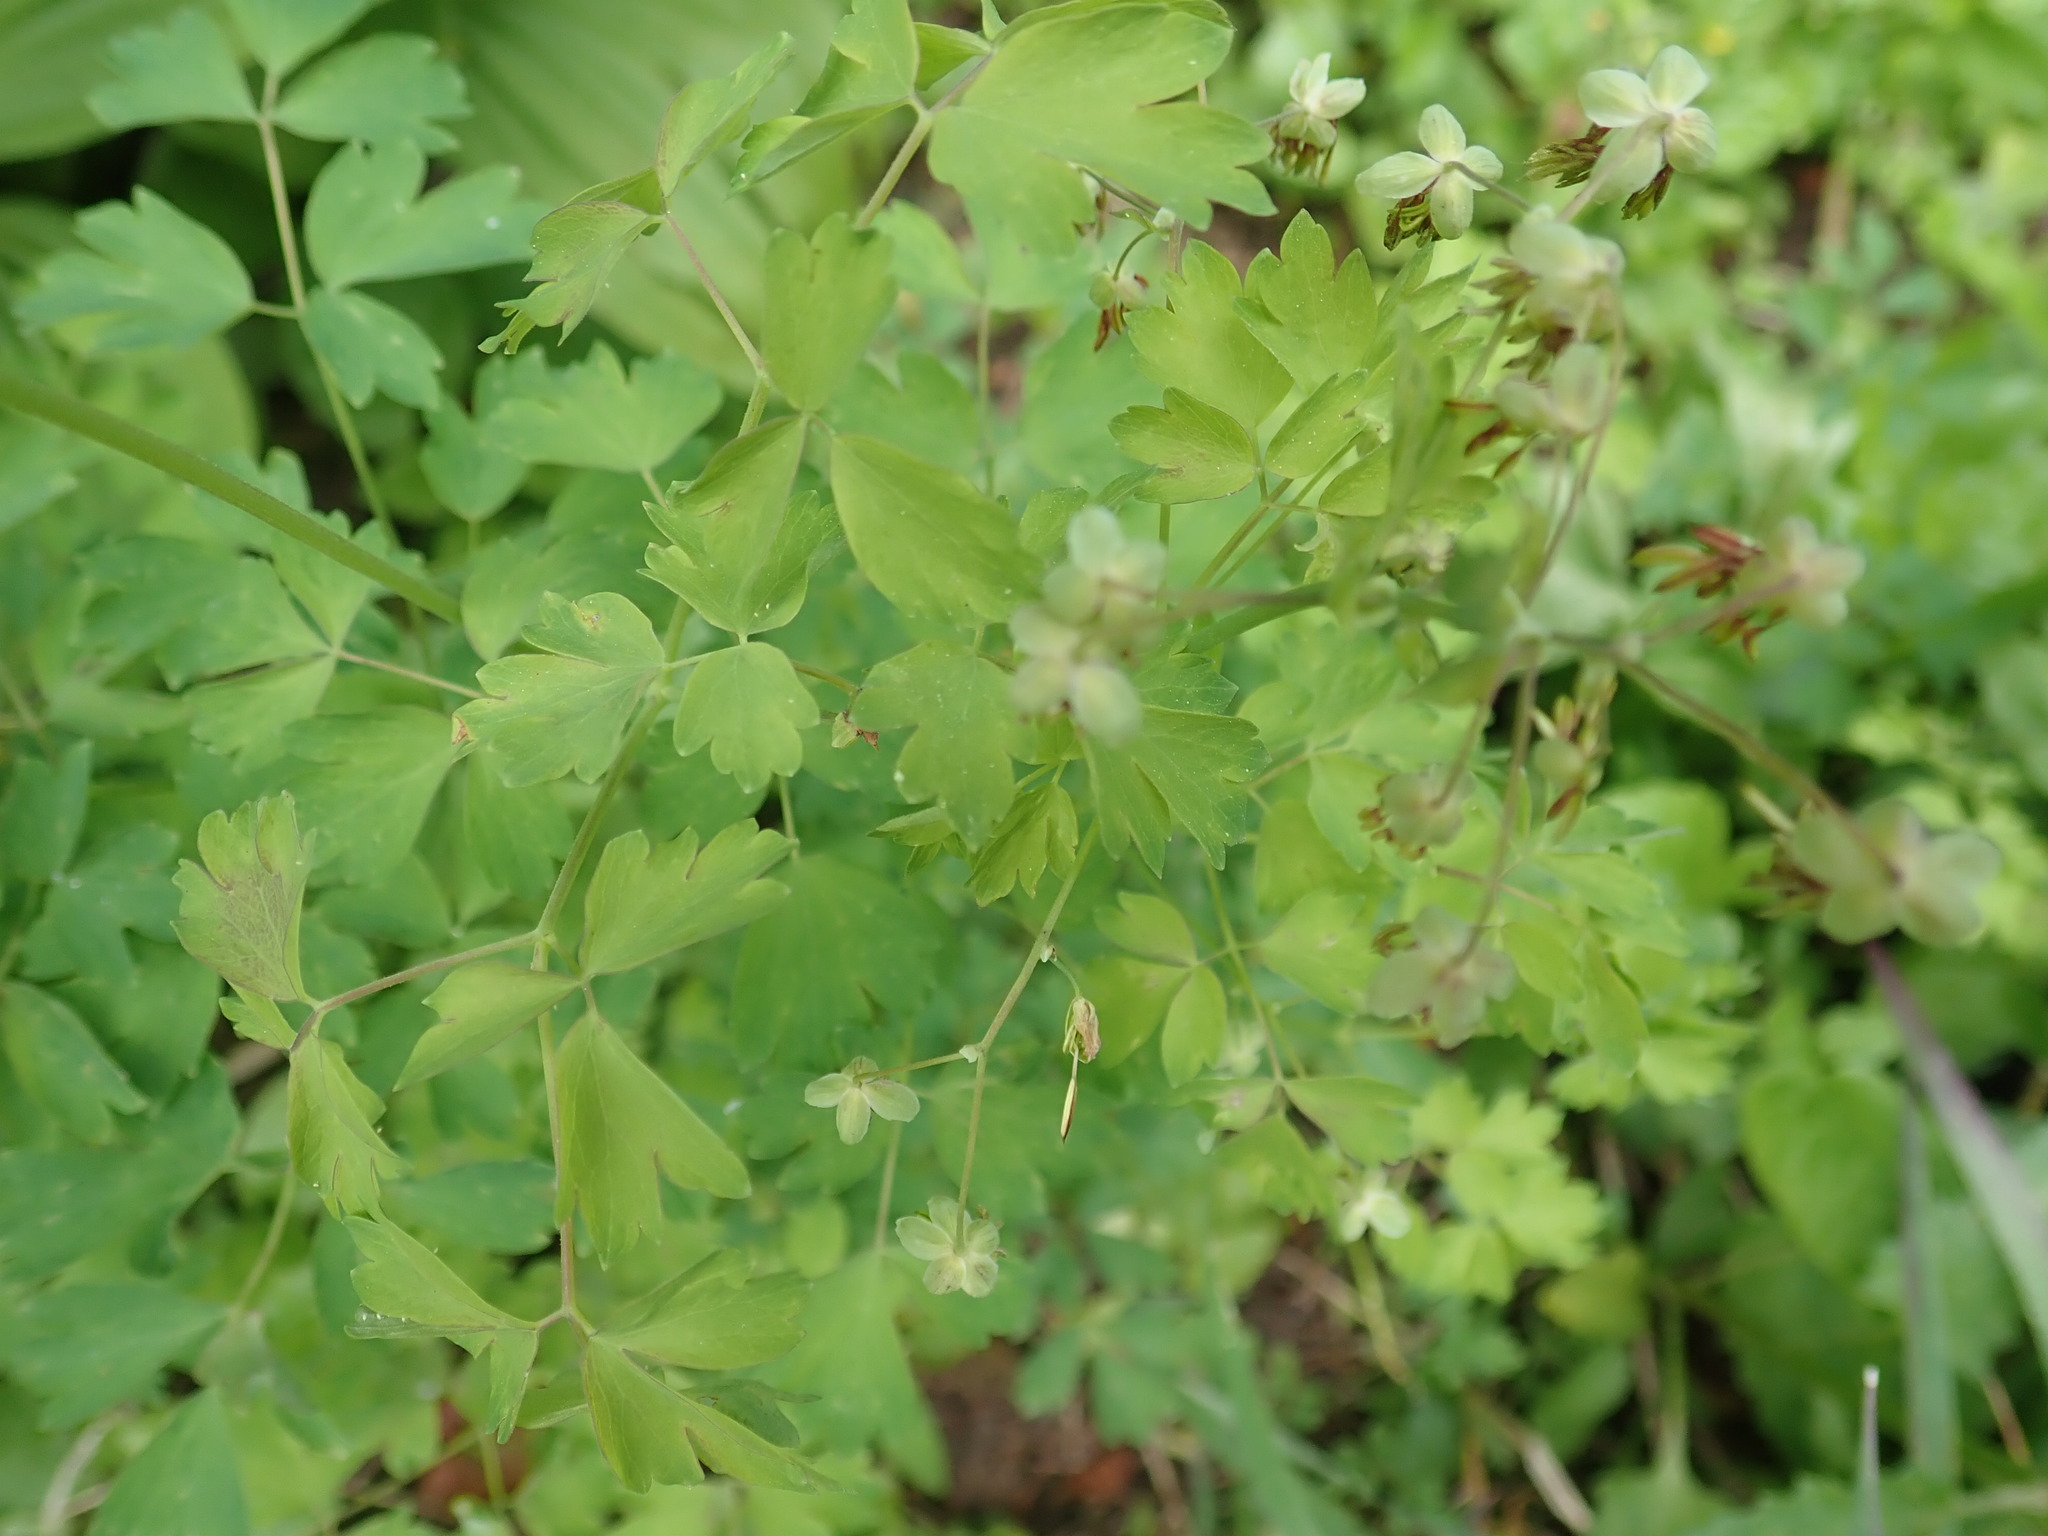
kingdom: Plantae
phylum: Tracheophyta
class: Magnoliopsida
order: Ranunculales
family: Ranunculaceae
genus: Thalictrum
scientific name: Thalictrum occidentale
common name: Western meadow-rue
